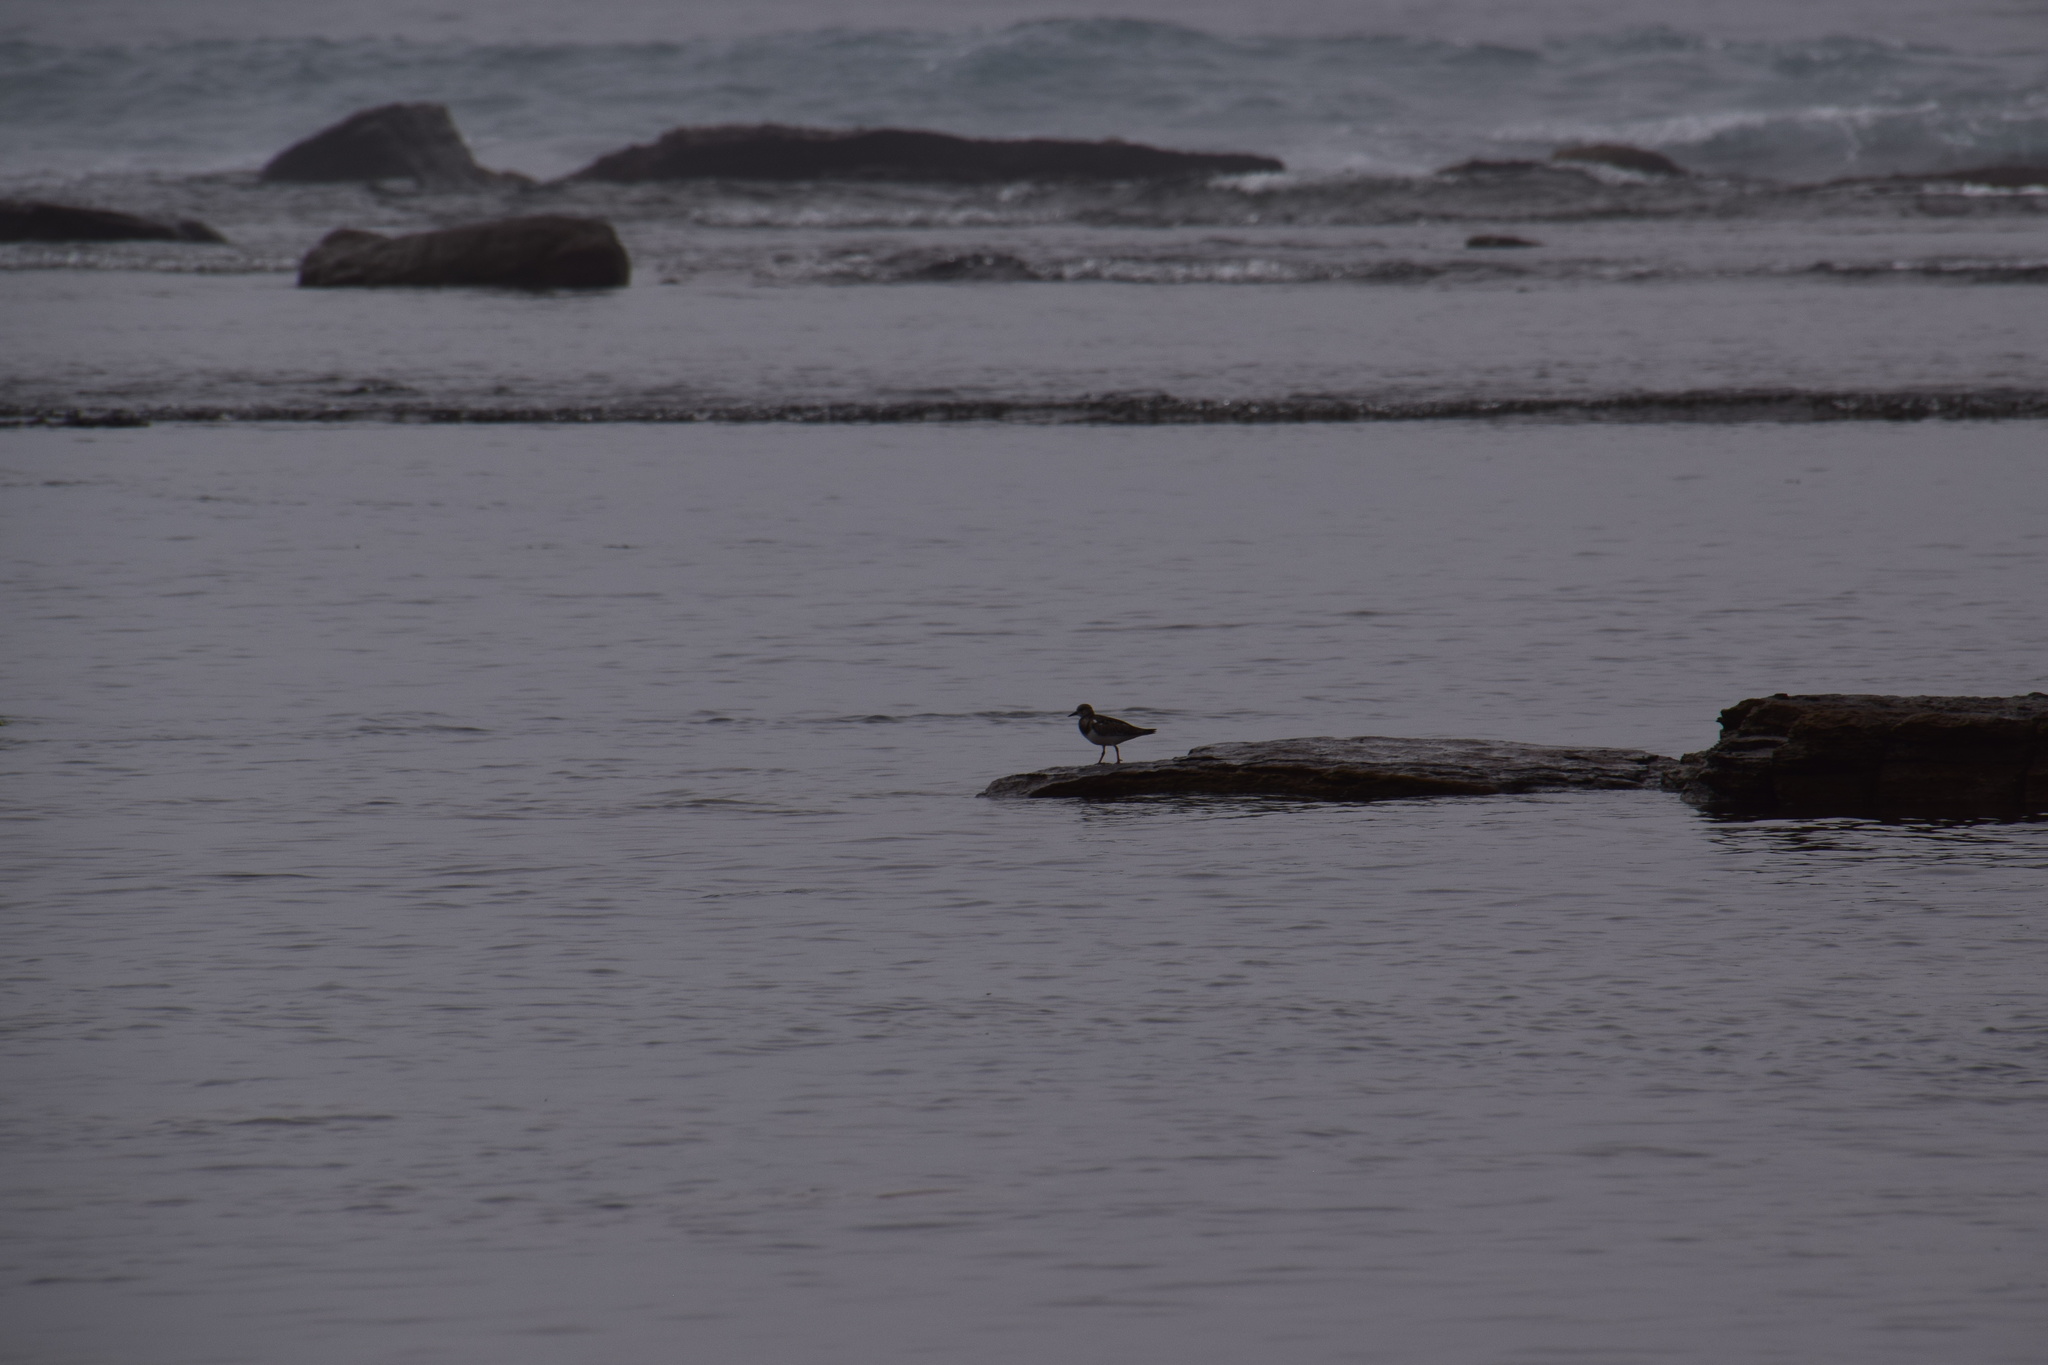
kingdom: Animalia
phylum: Chordata
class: Aves
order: Charadriiformes
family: Scolopacidae
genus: Arenaria
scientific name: Arenaria interpres
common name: Ruddy turnstone
